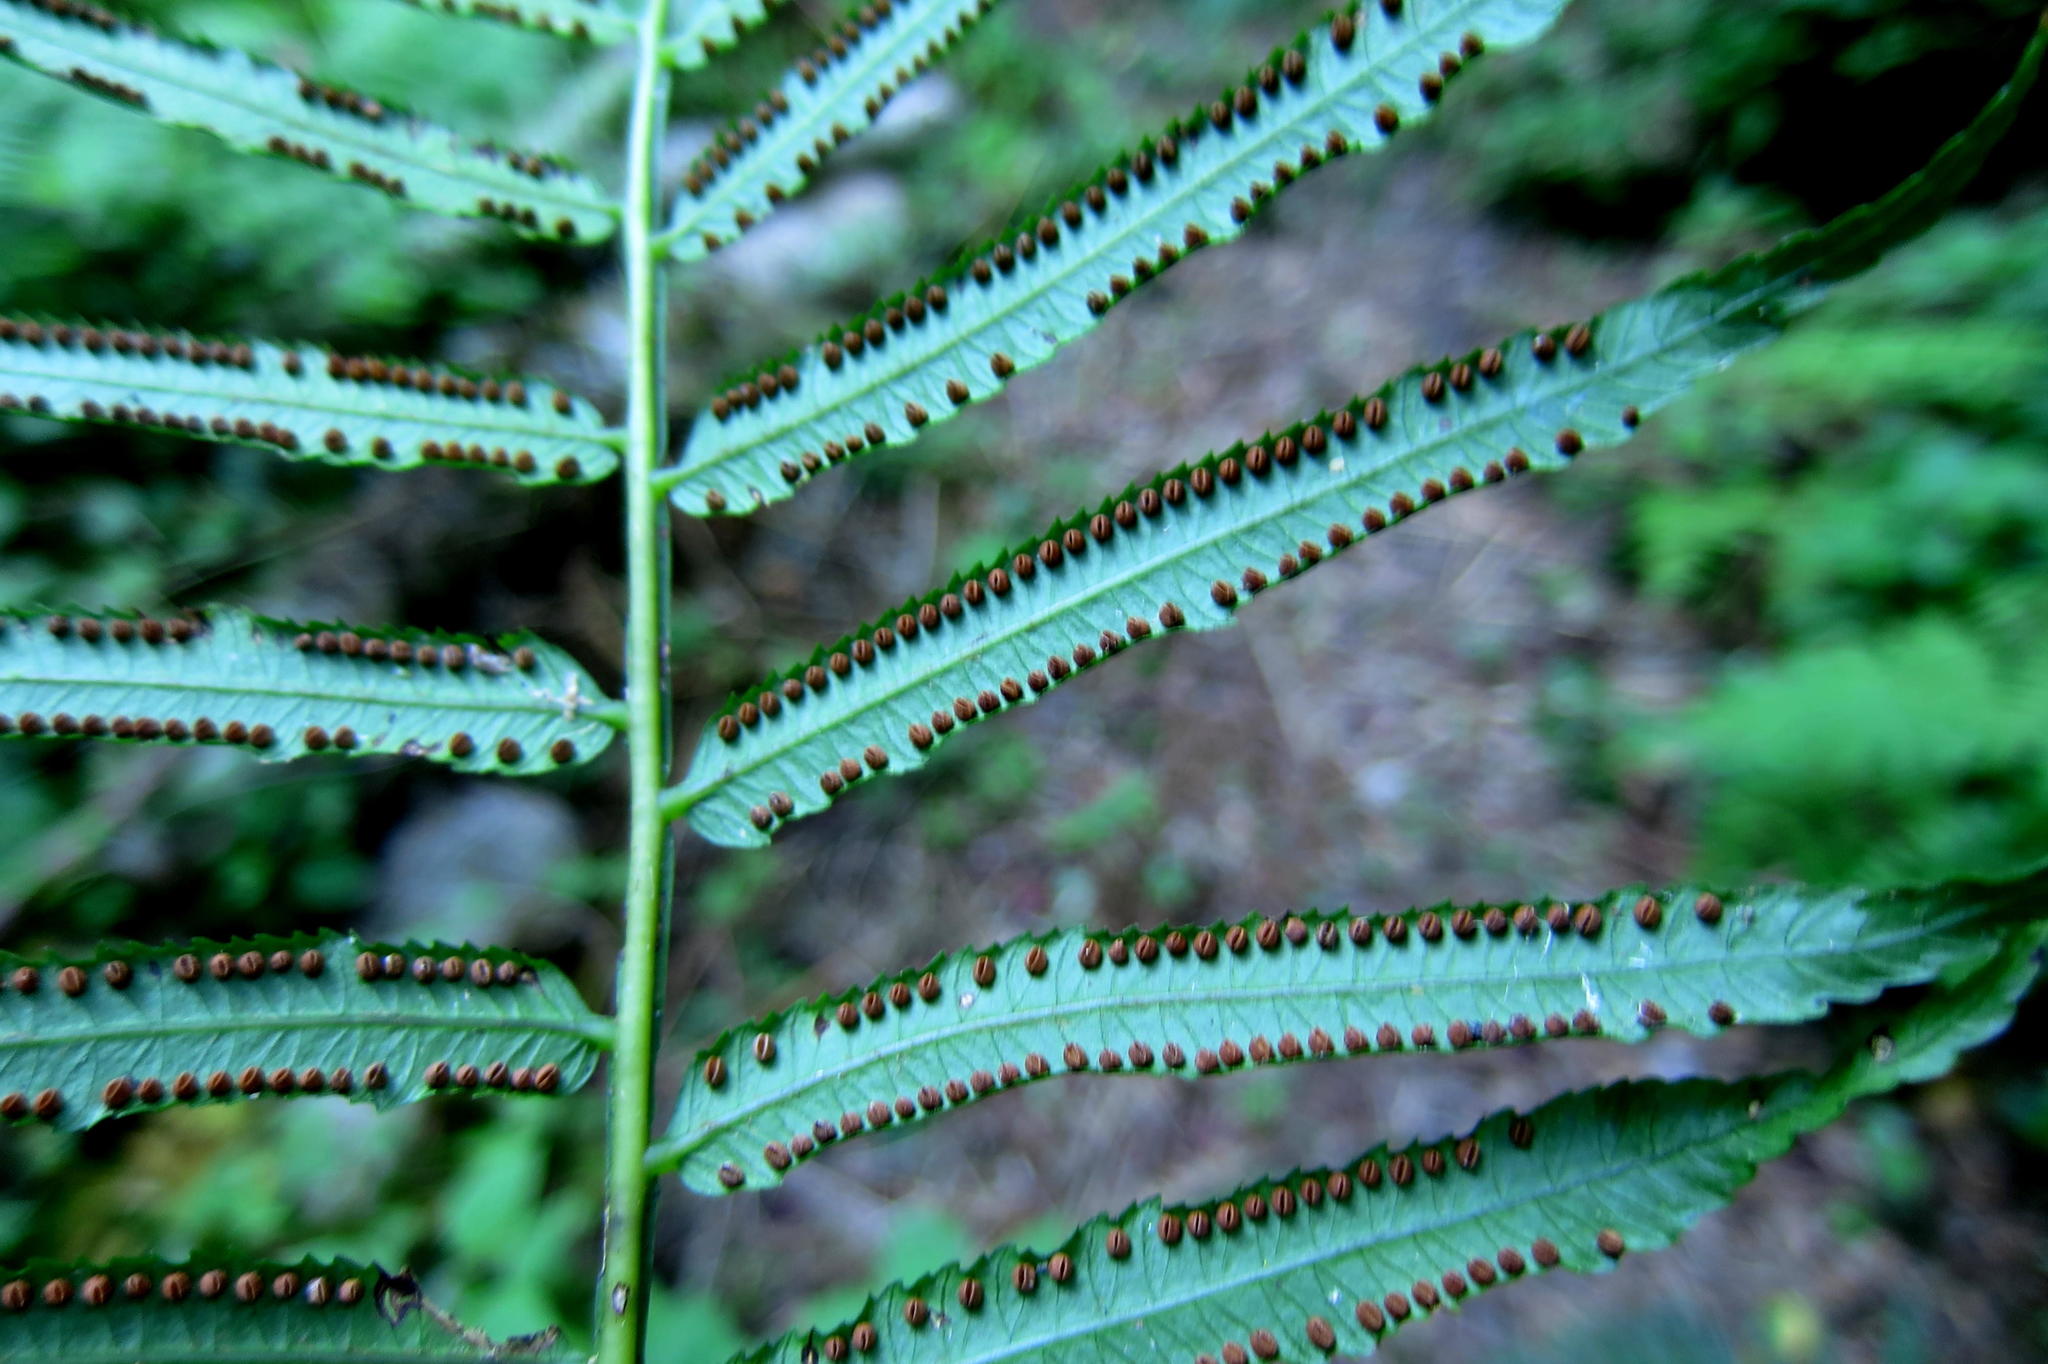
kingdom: Plantae
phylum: Tracheophyta
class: Polypodiopsida
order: Marattiales
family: Marattiaceae
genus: Ptisana
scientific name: Ptisana salicifolia
